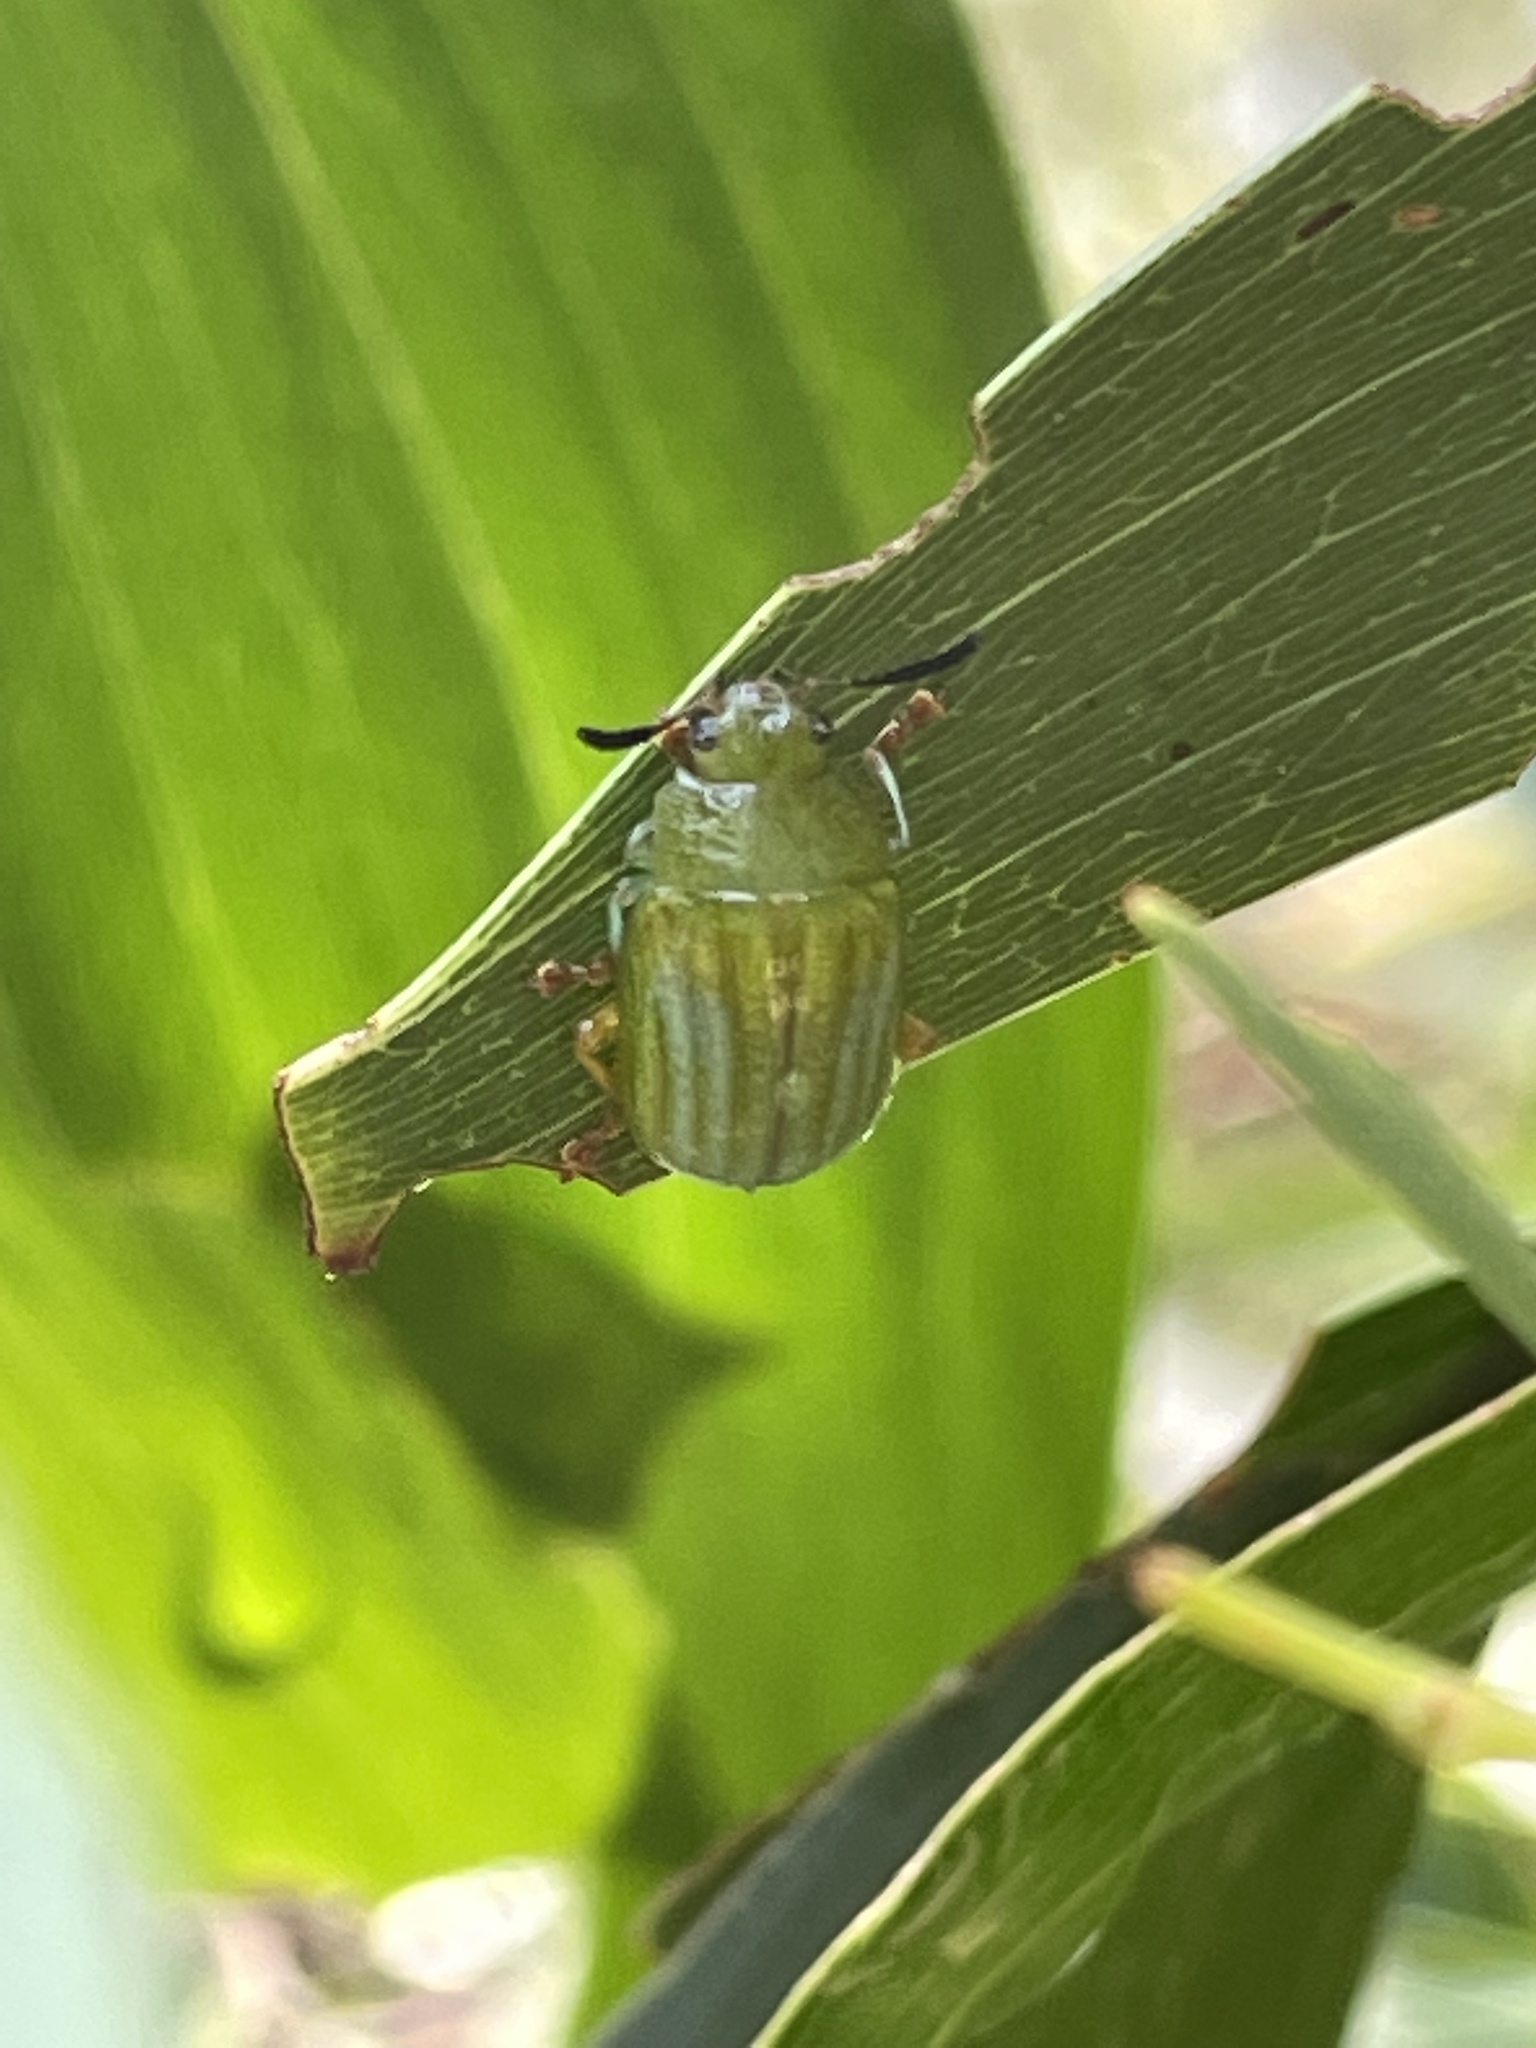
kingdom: Animalia
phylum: Arthropoda
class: Insecta
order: Coleoptera
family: Chrysomelidae
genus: Calomela
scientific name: Calomela
